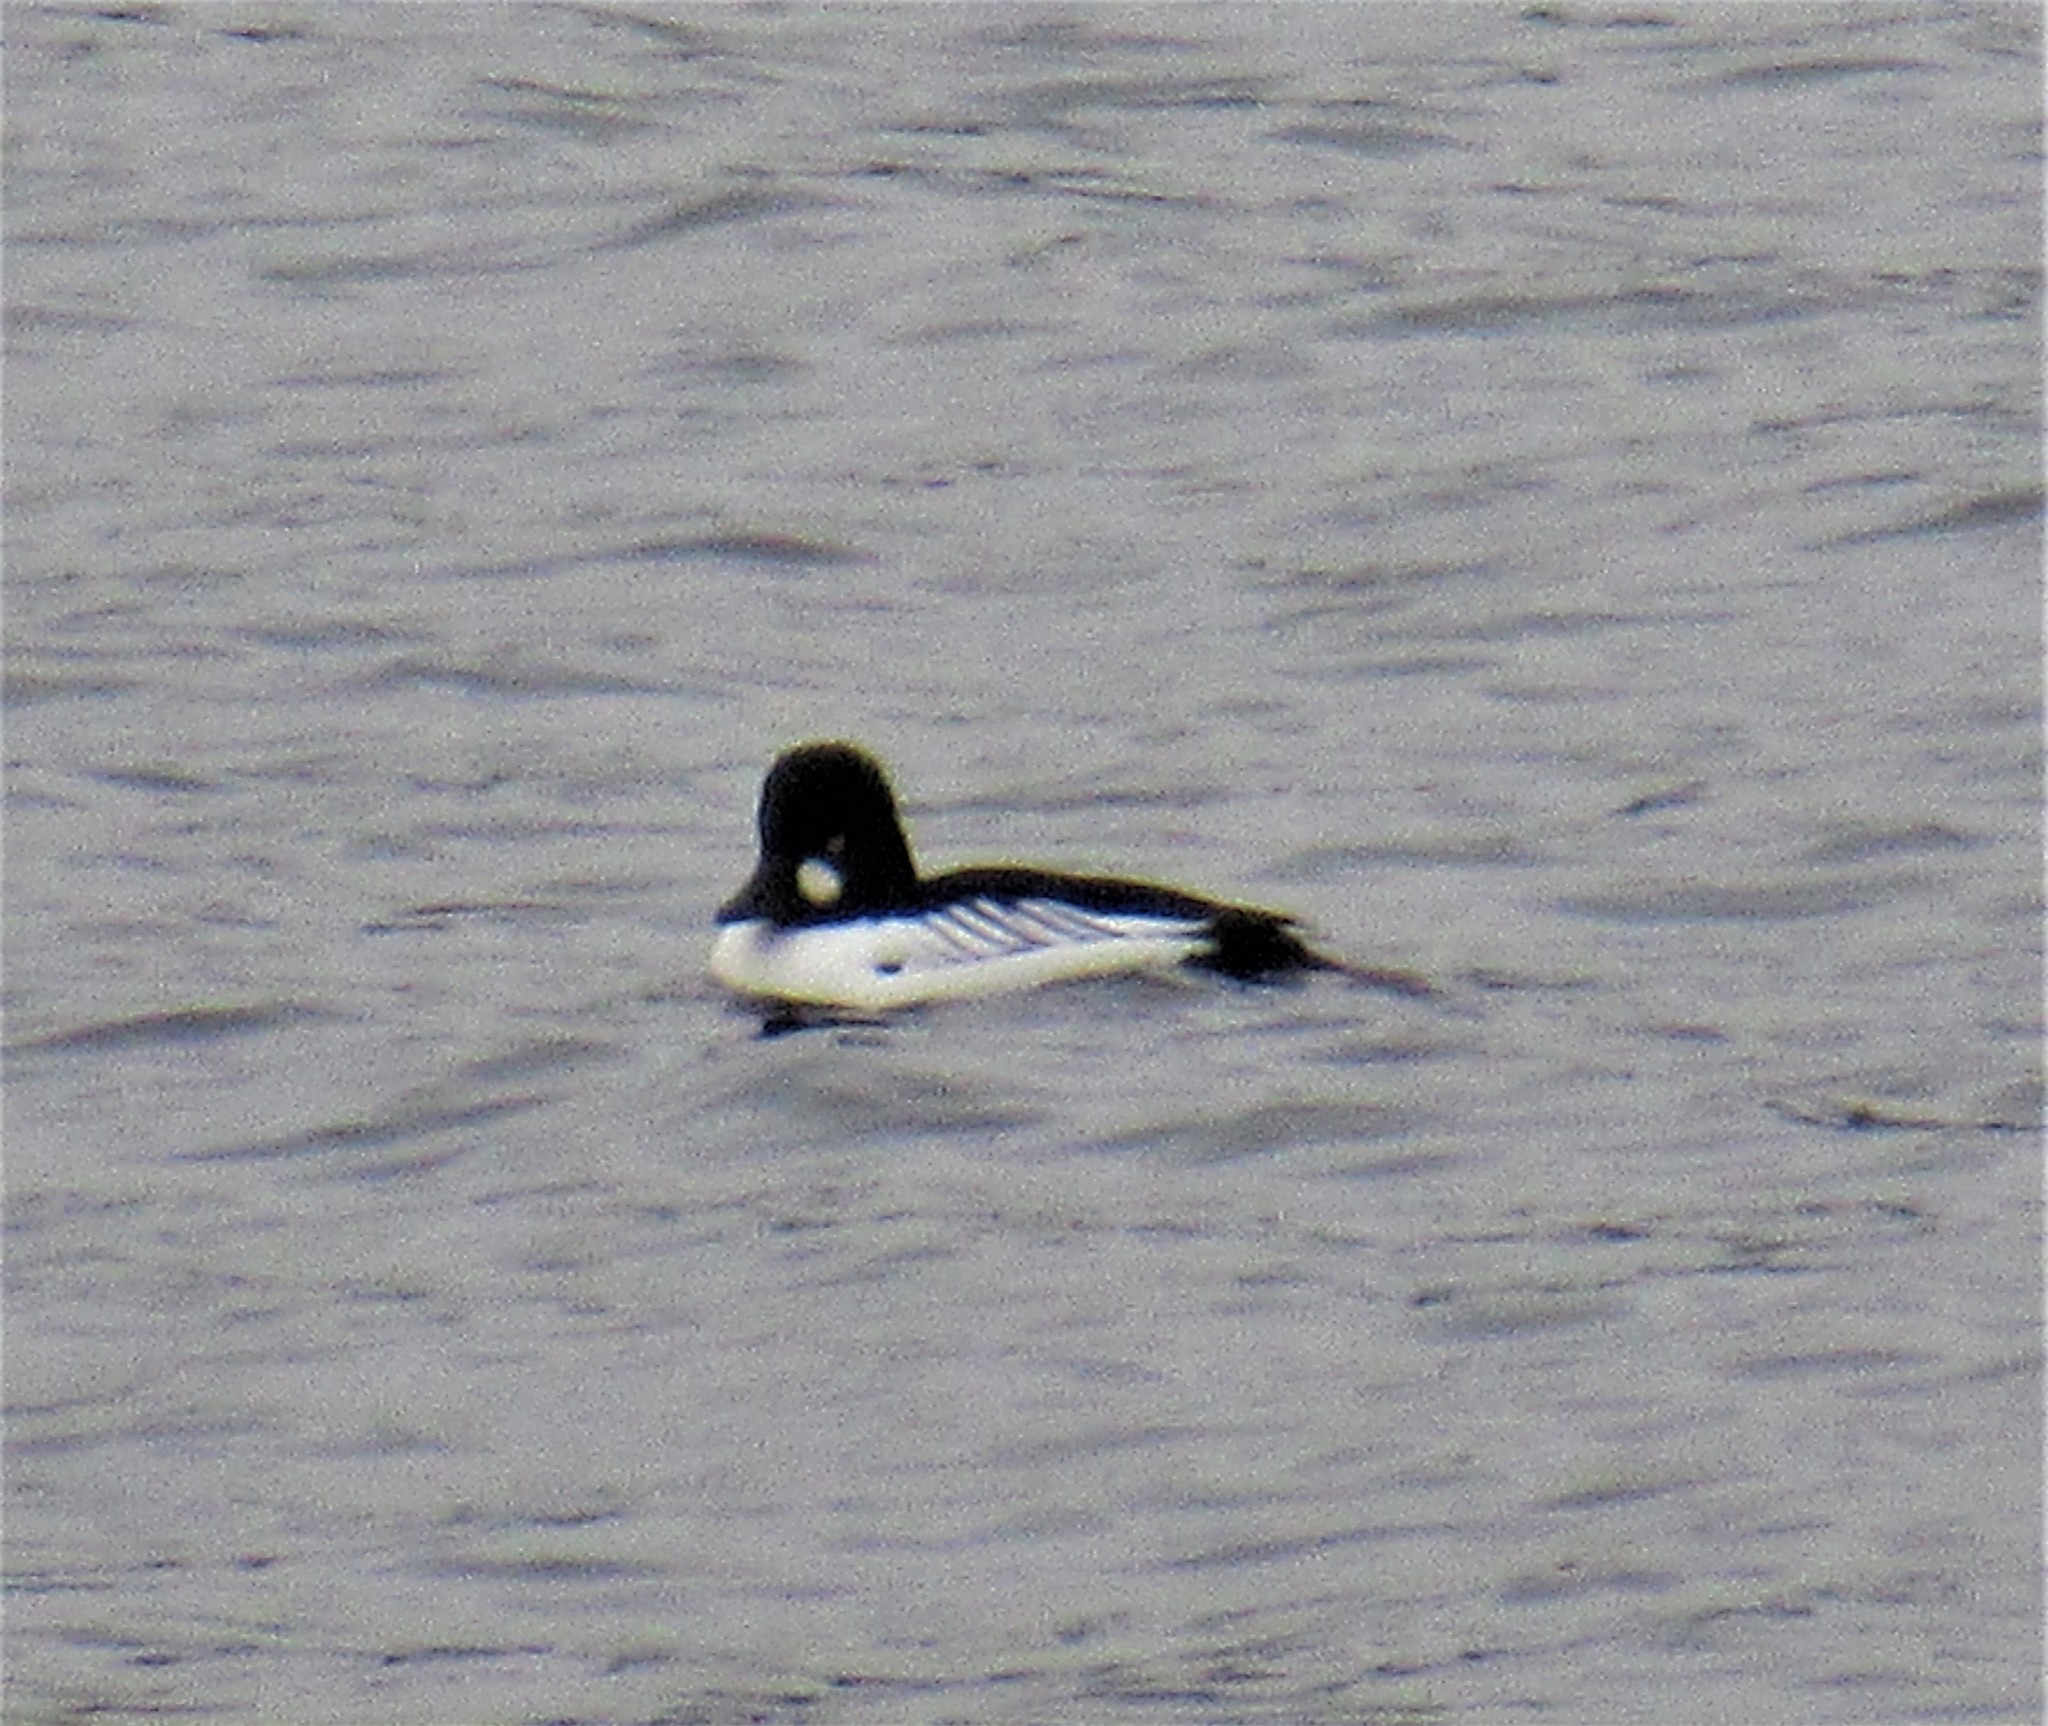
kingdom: Animalia
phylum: Chordata
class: Aves
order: Anseriformes
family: Anatidae
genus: Bucephala
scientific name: Bucephala clangula
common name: Common goldeneye
